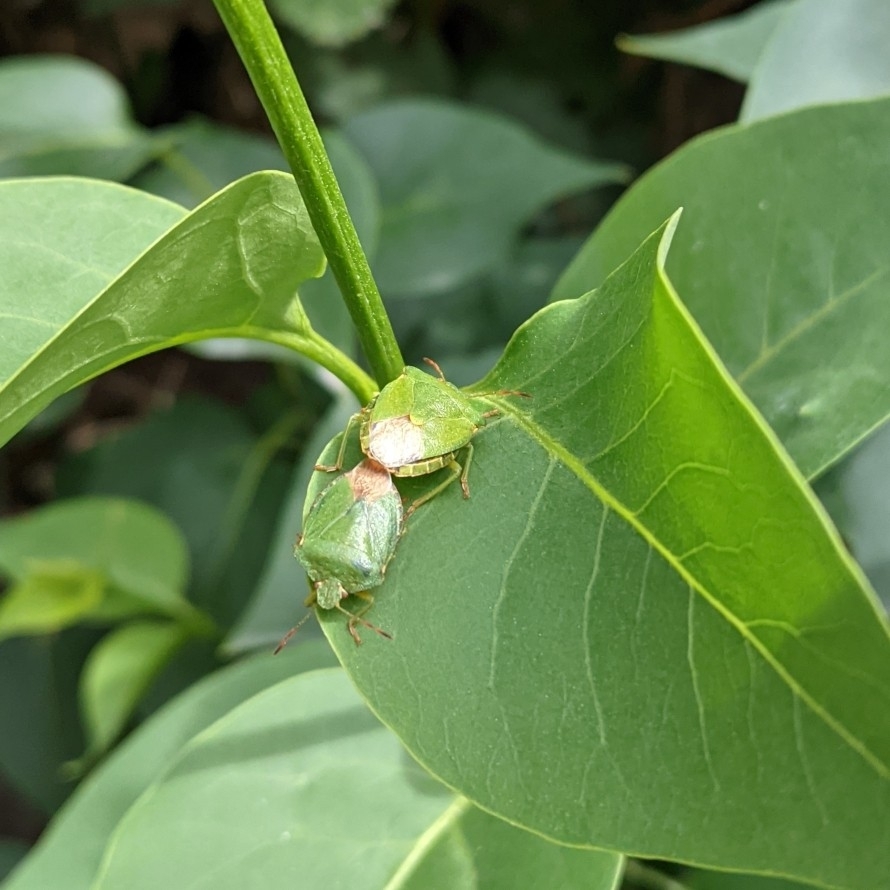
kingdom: Animalia
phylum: Arthropoda
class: Insecta
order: Hemiptera
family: Pentatomidae
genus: Palomena
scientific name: Palomena prasina
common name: Green shieldbug
